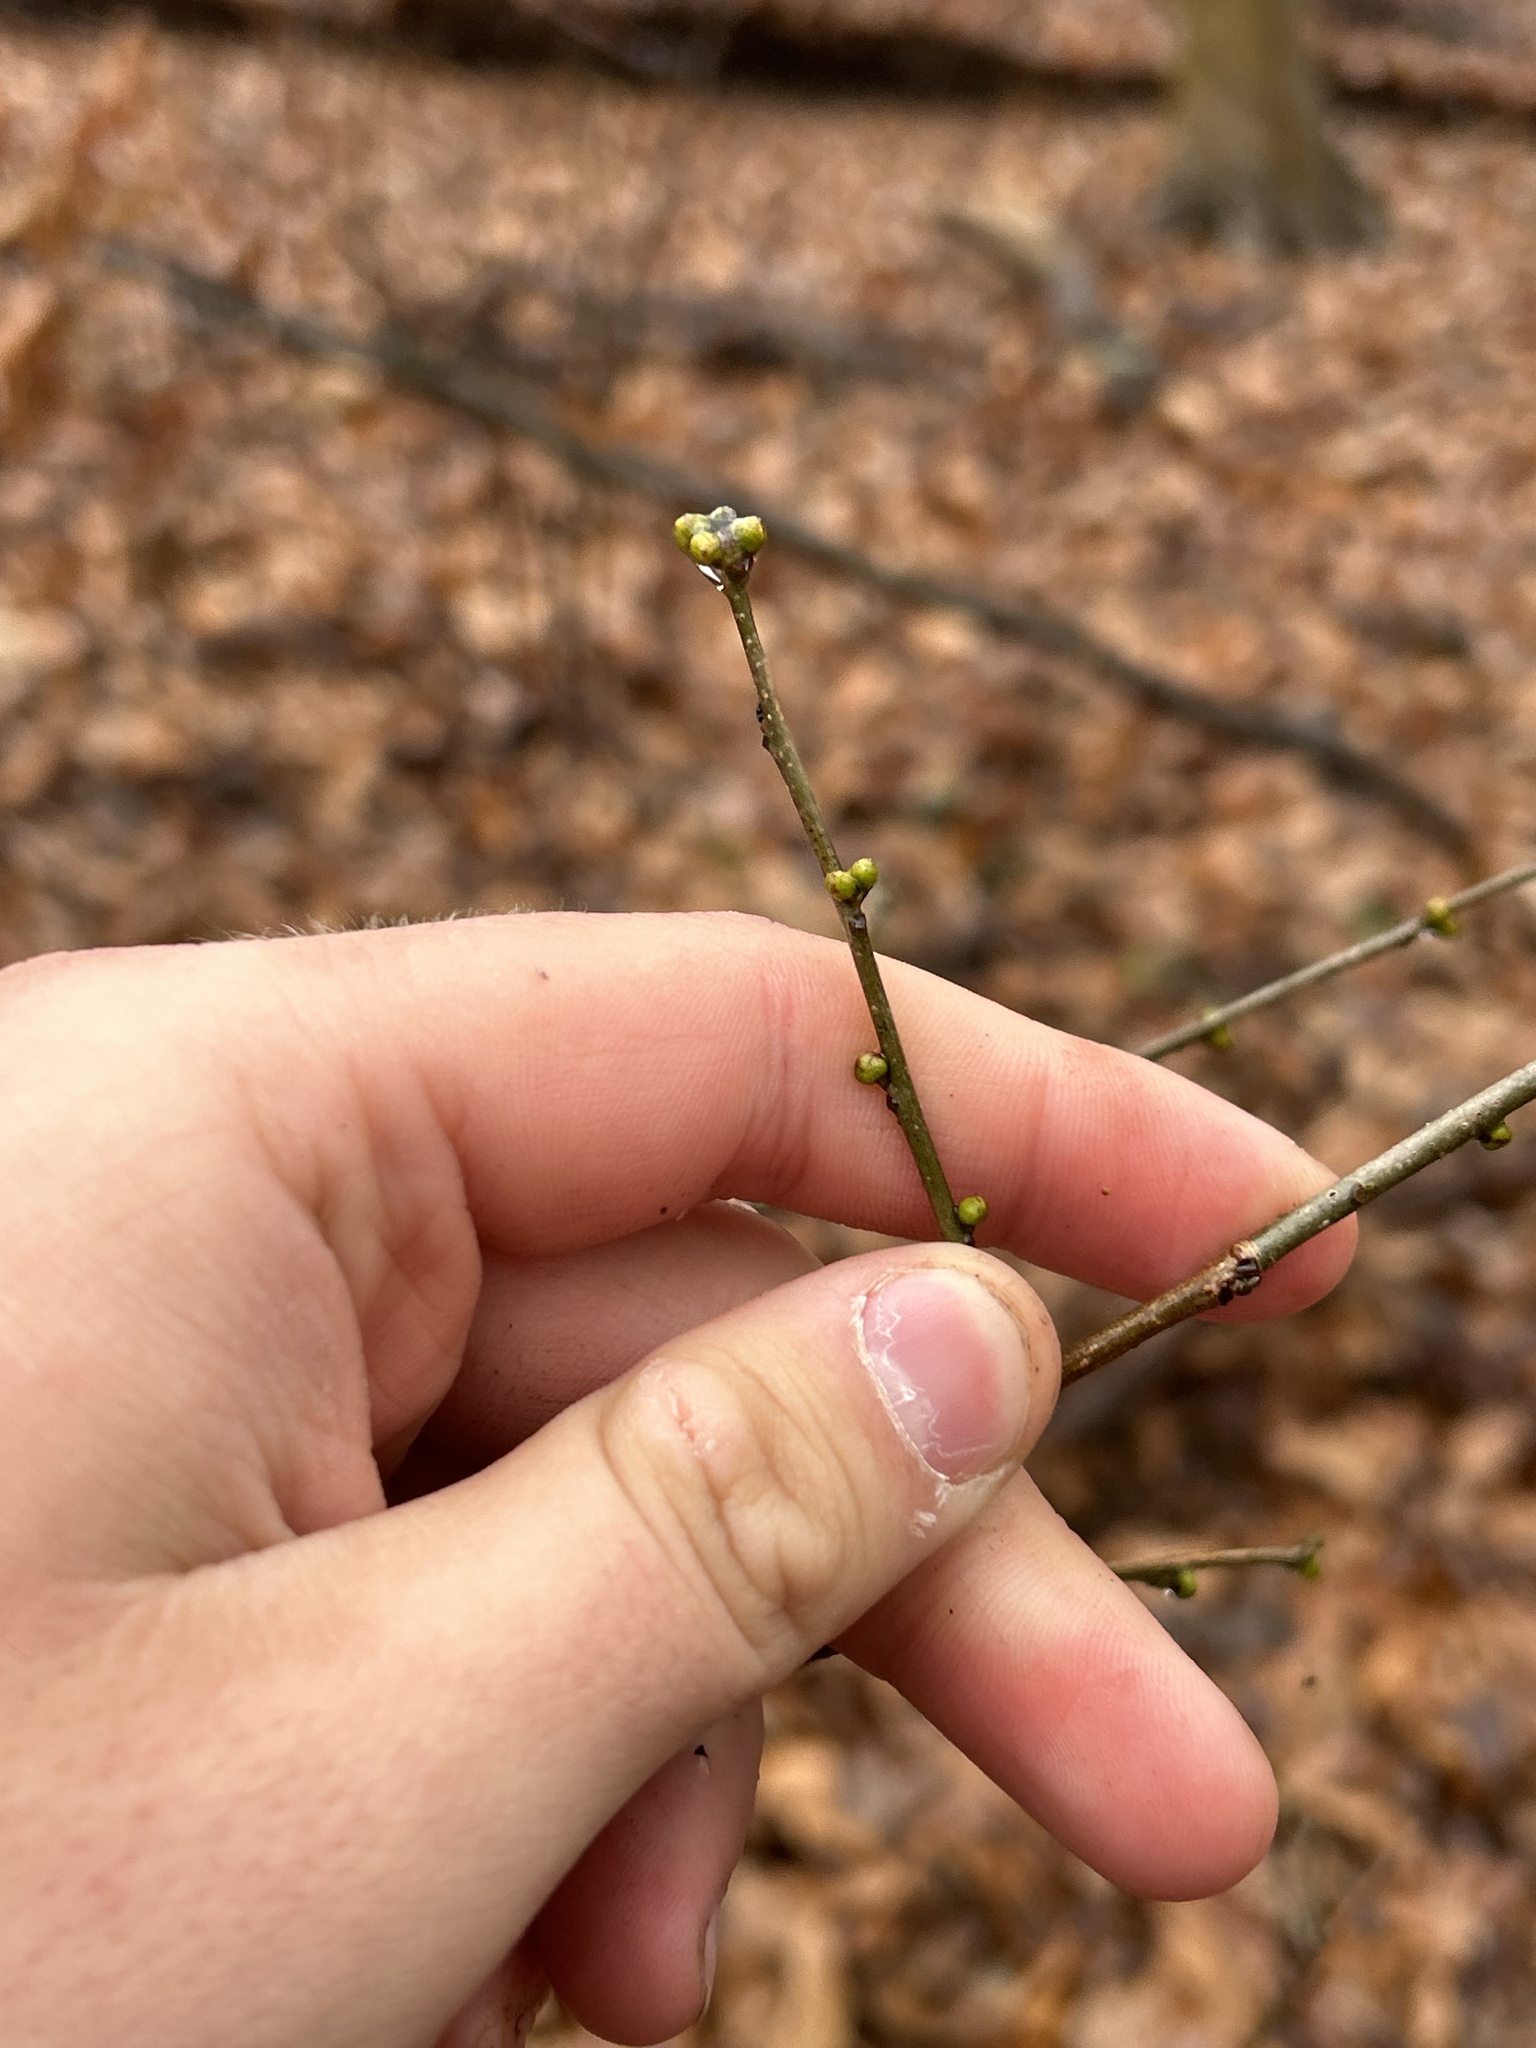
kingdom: Plantae
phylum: Tracheophyta
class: Magnoliopsida
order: Laurales
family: Lauraceae
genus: Lindera
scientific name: Lindera benzoin
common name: Spicebush
